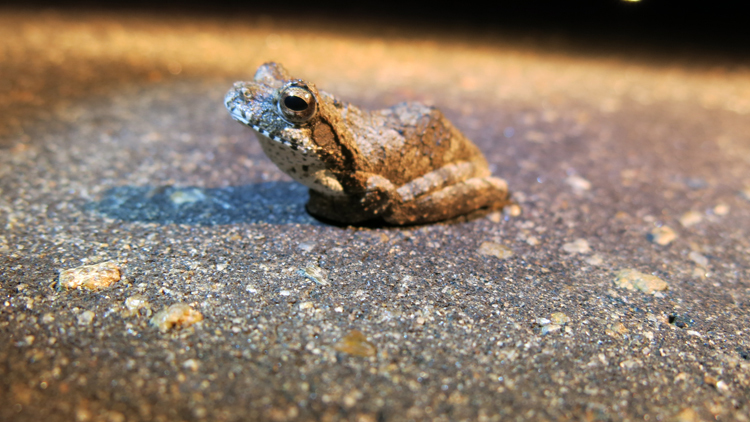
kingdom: Animalia
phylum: Chordata
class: Amphibia
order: Anura
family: Rhacophoridae
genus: Chiromantis
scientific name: Chiromantis xerampelina
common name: African gray treefrog
